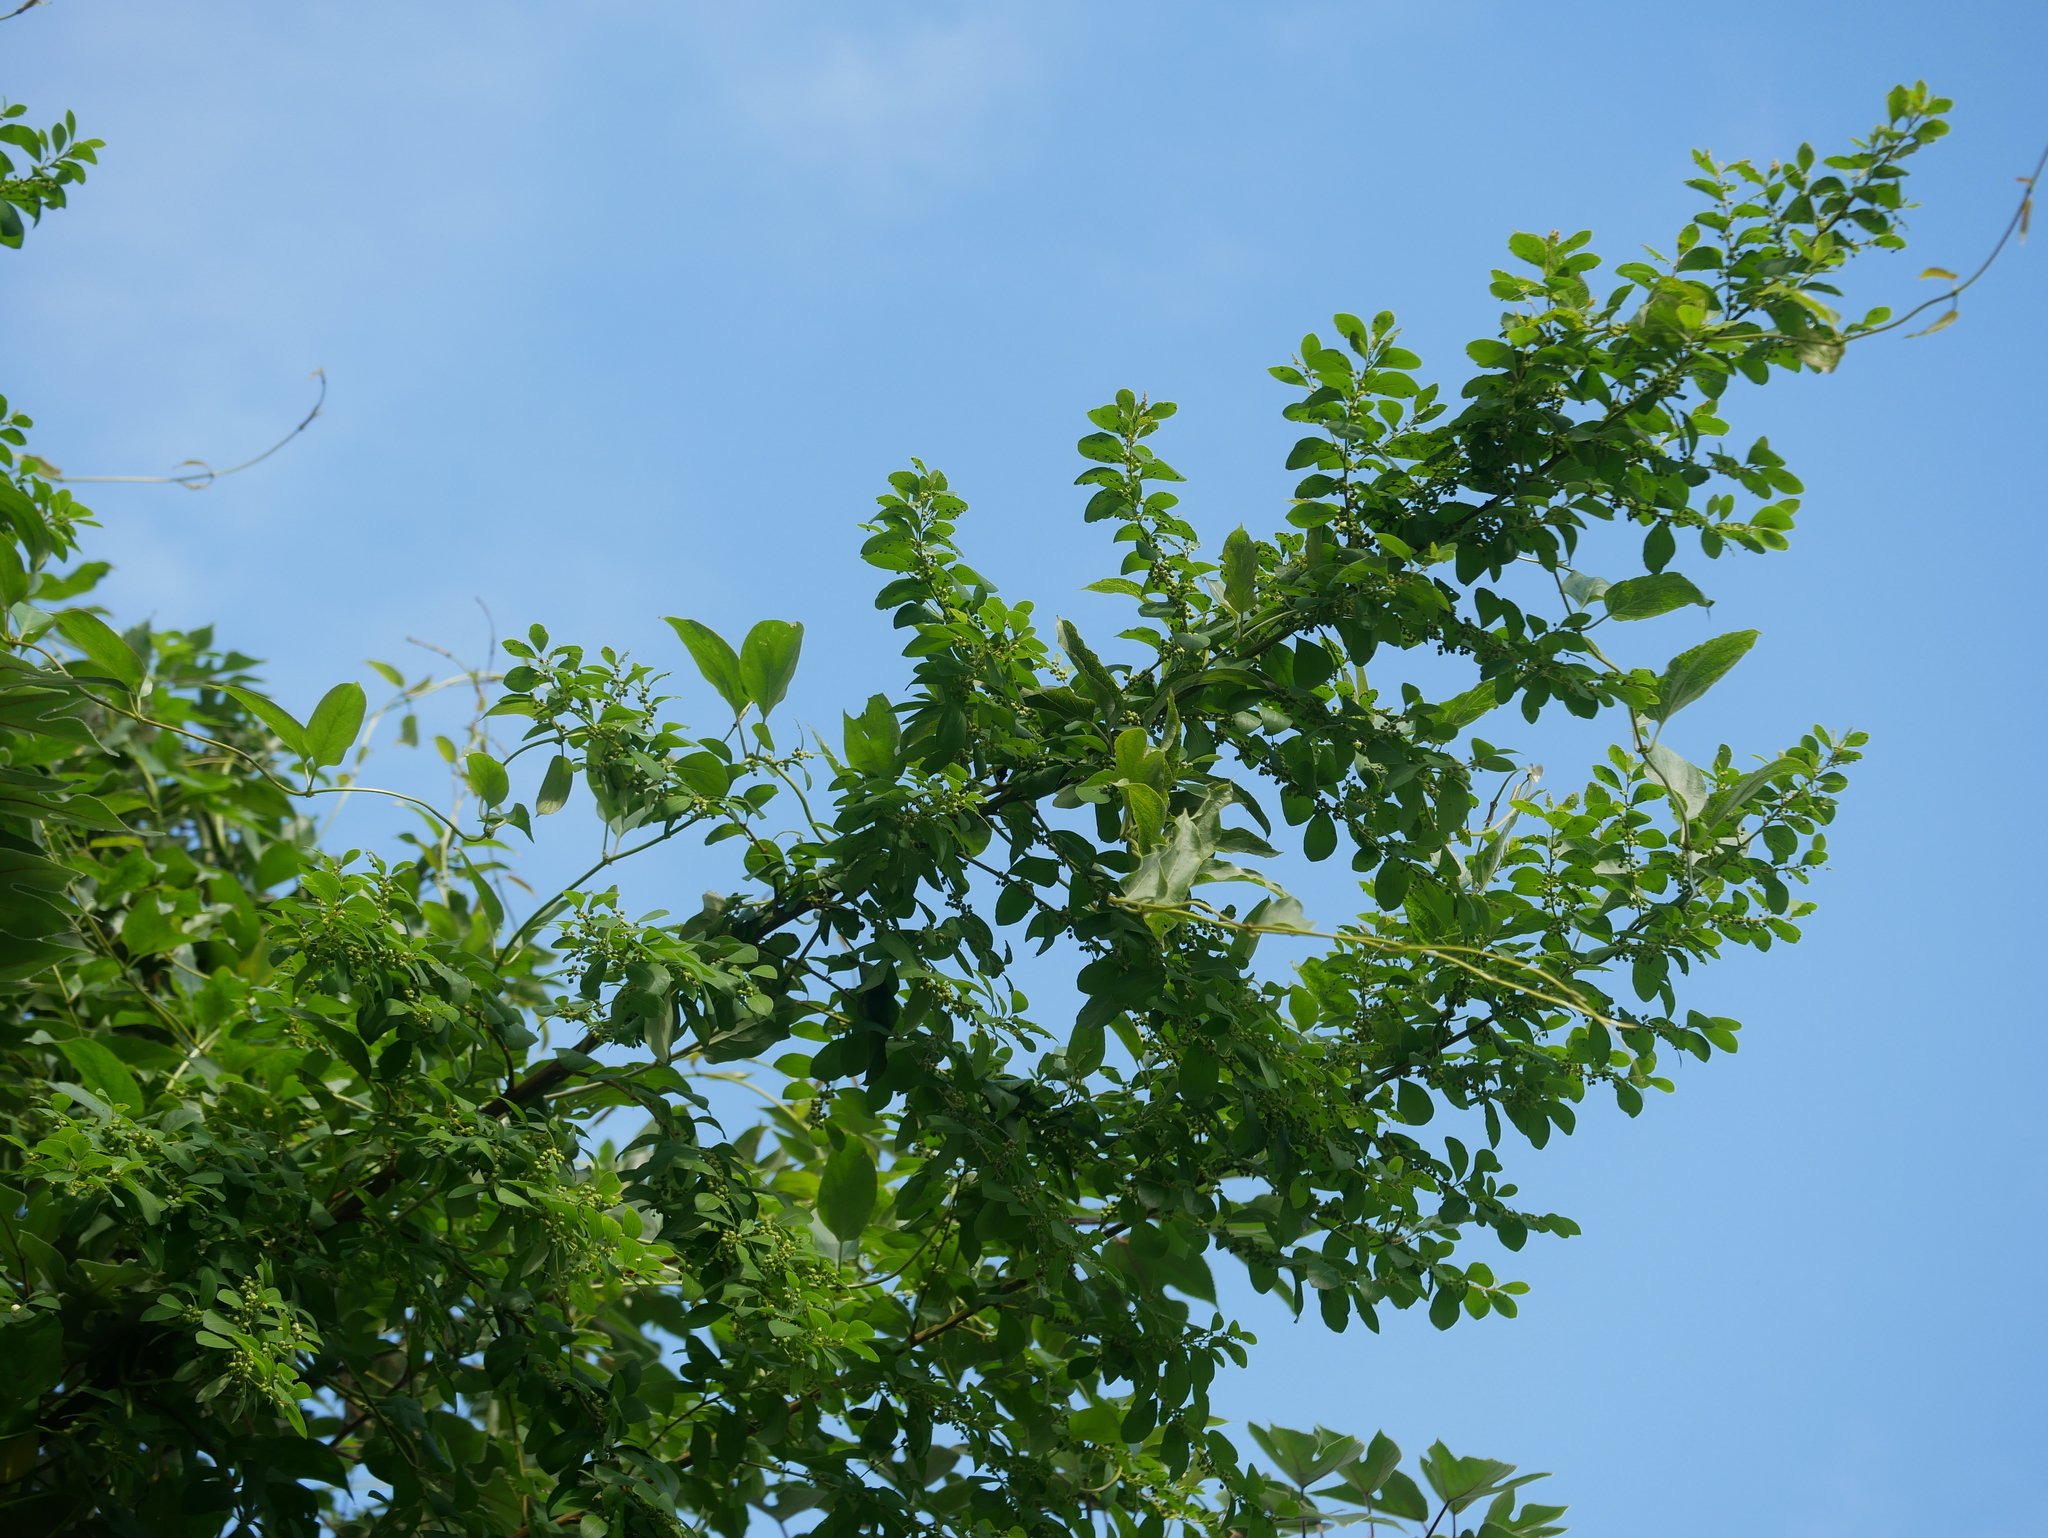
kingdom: Plantae
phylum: Tracheophyta
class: Magnoliopsida
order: Malpighiales
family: Phyllanthaceae
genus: Flueggea
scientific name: Flueggea virosa
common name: Common bushweed
